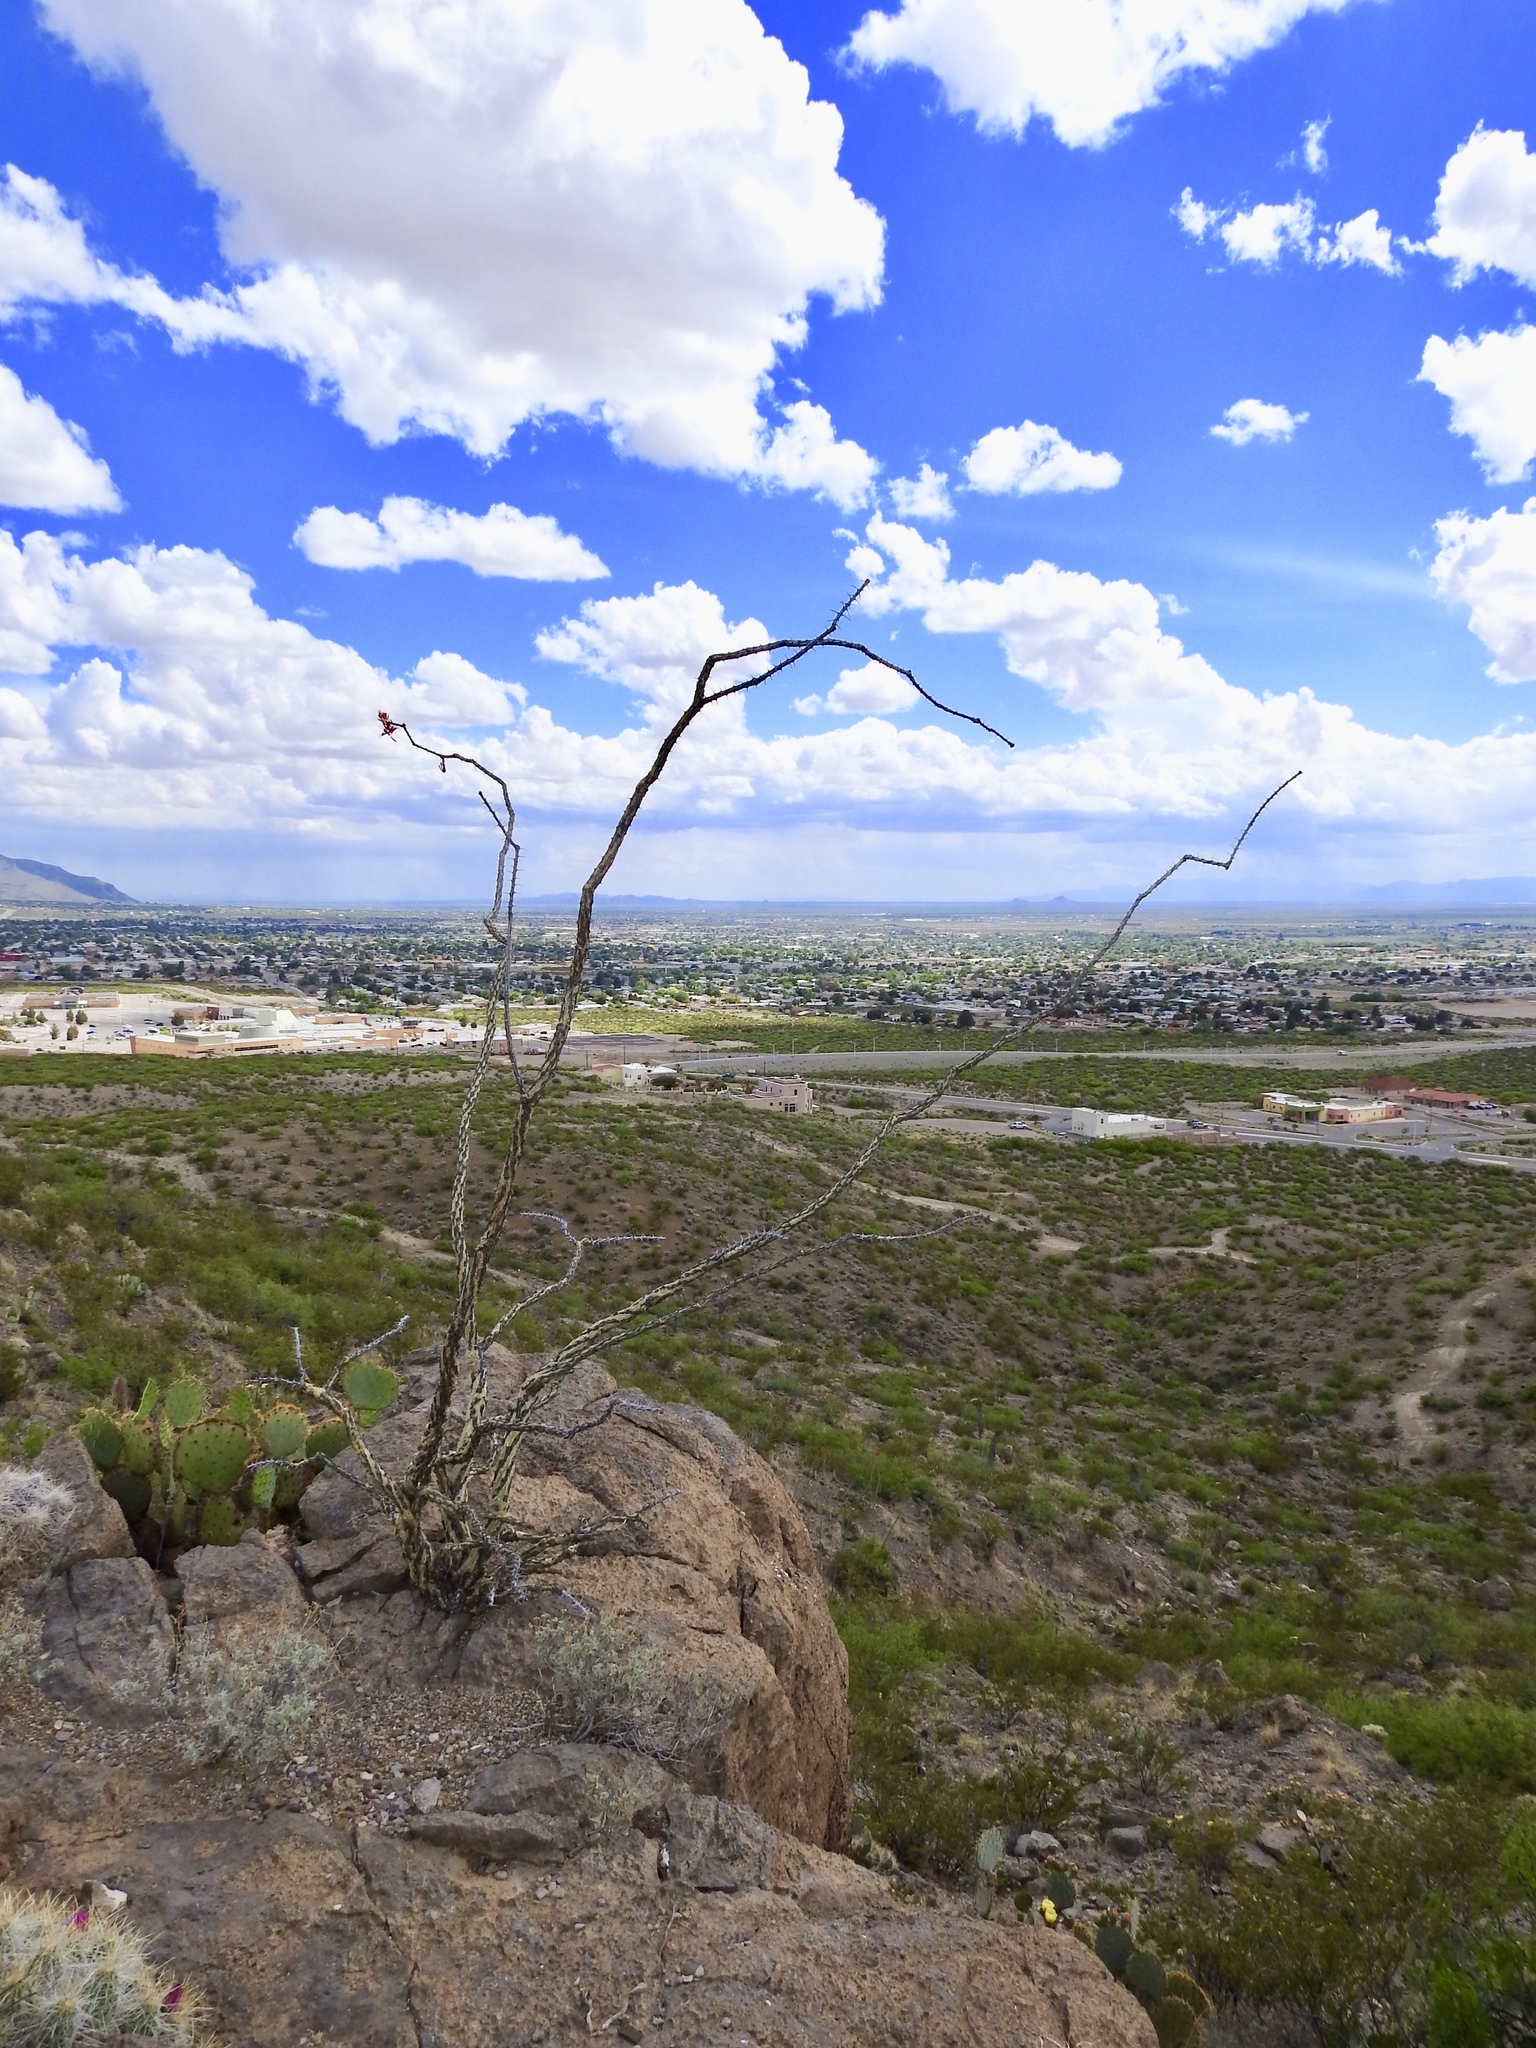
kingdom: Plantae
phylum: Tracheophyta
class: Magnoliopsida
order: Ericales
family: Fouquieriaceae
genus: Fouquieria
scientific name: Fouquieria splendens
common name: Vine-cactus
